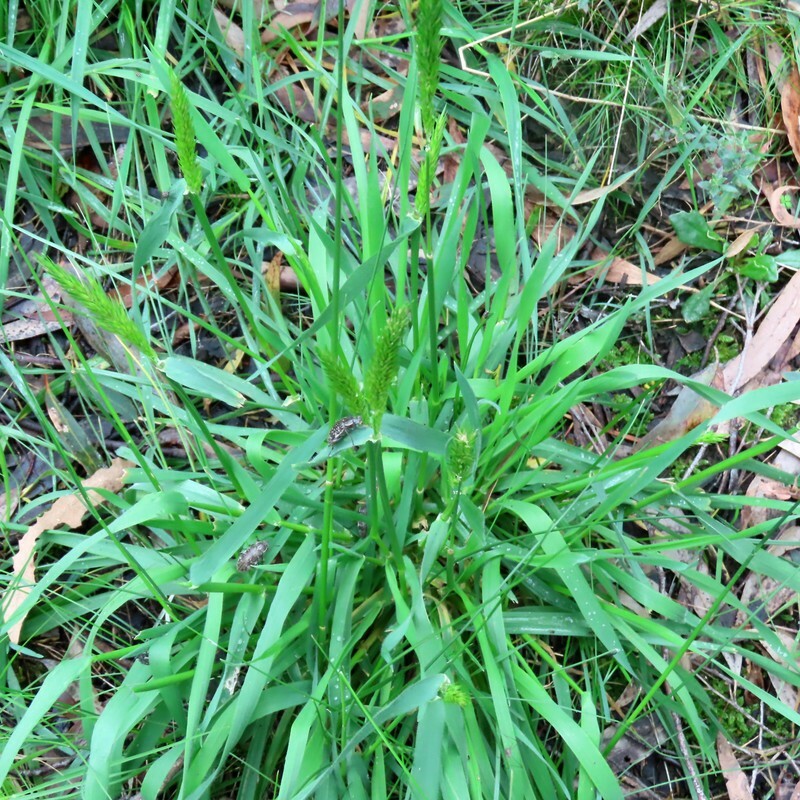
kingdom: Plantae
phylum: Tracheophyta
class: Liliopsida
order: Poales
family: Poaceae
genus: Anthoxanthum
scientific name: Anthoxanthum odoratum
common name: Sweet vernalgrass
